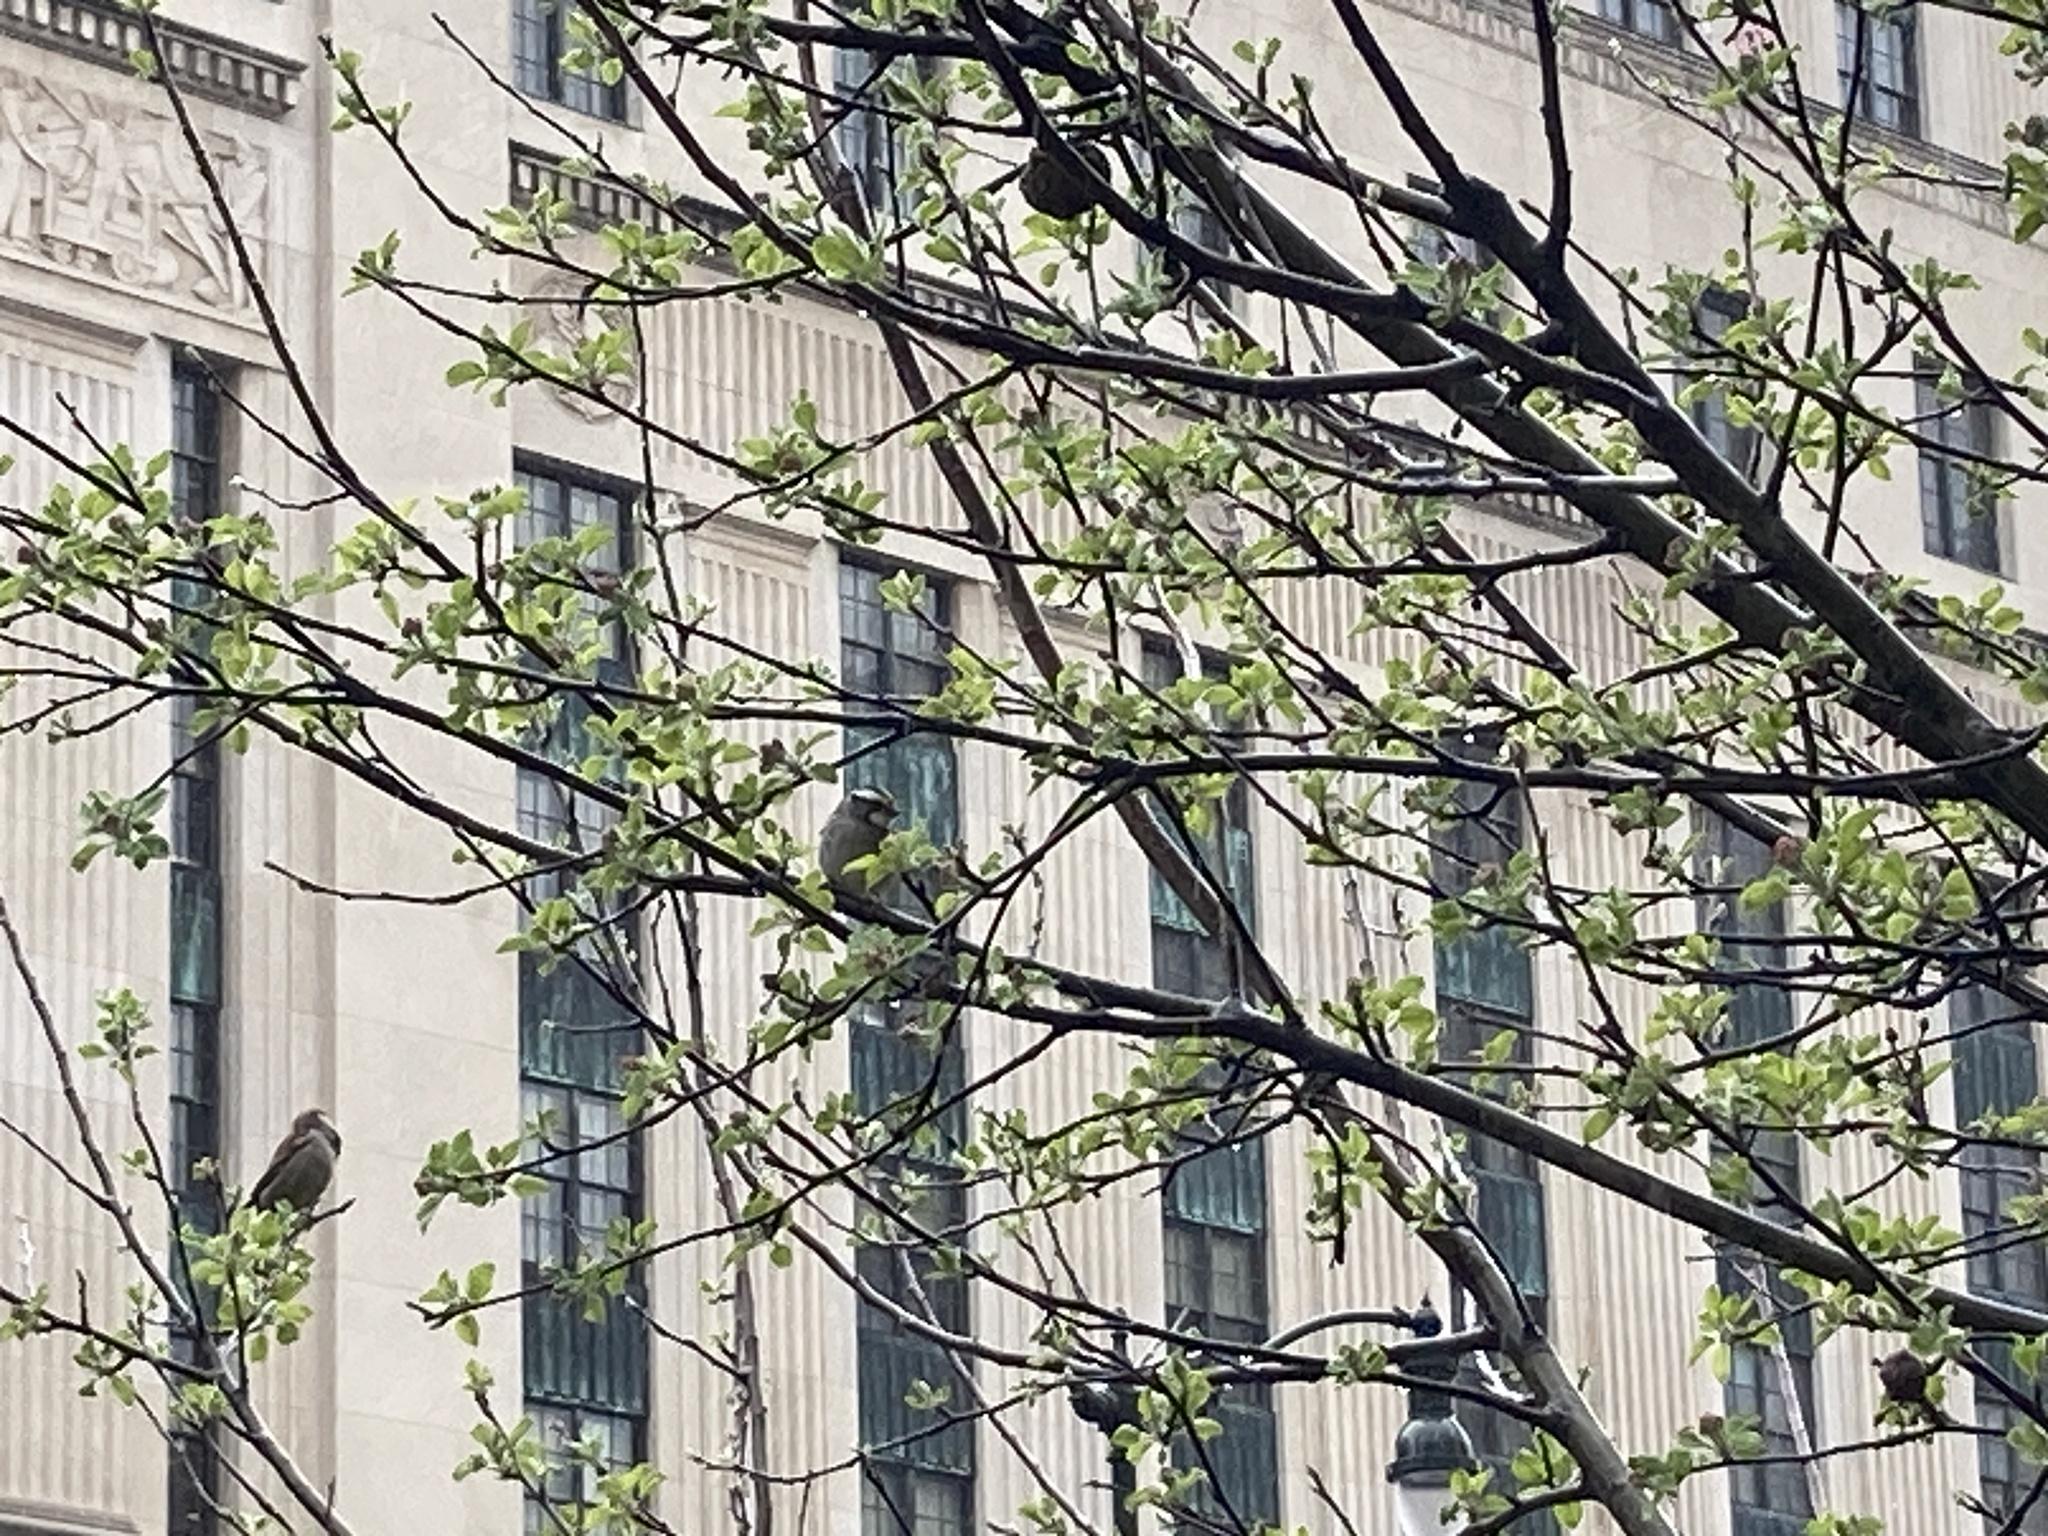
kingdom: Animalia
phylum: Chordata
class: Aves
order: Passeriformes
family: Passerellidae
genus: Zonotrichia
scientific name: Zonotrichia albicollis
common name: White-throated sparrow
